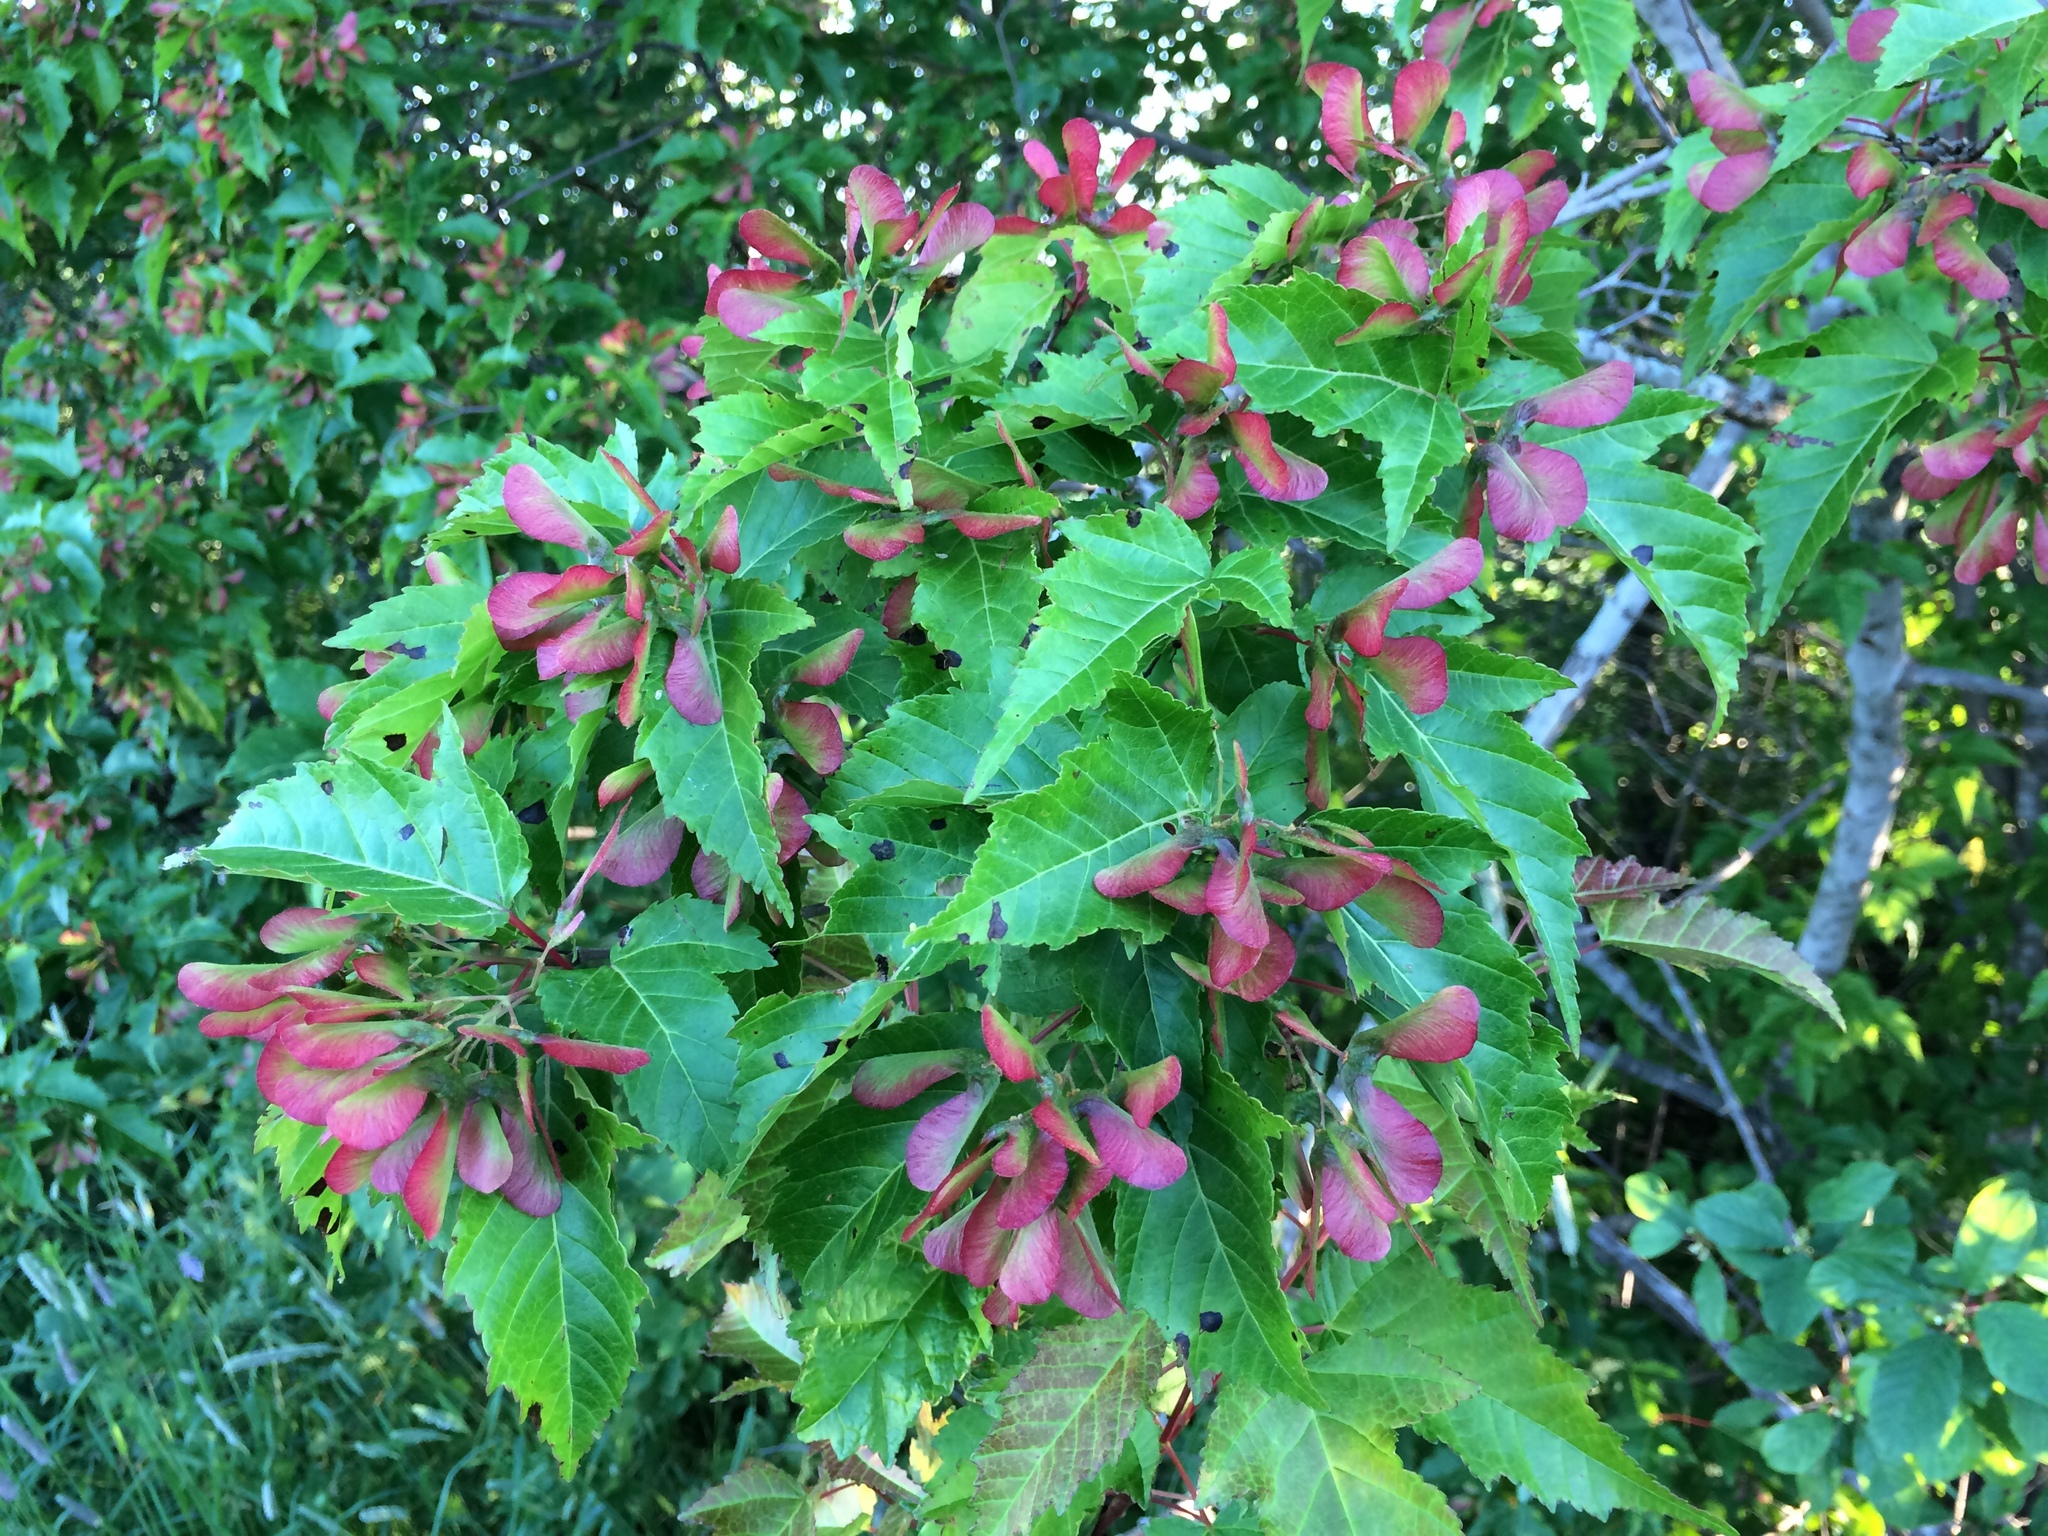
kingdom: Plantae
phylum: Tracheophyta
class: Magnoliopsida
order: Sapindales
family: Sapindaceae
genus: Acer
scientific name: Acer tataricum
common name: Tartar maple
